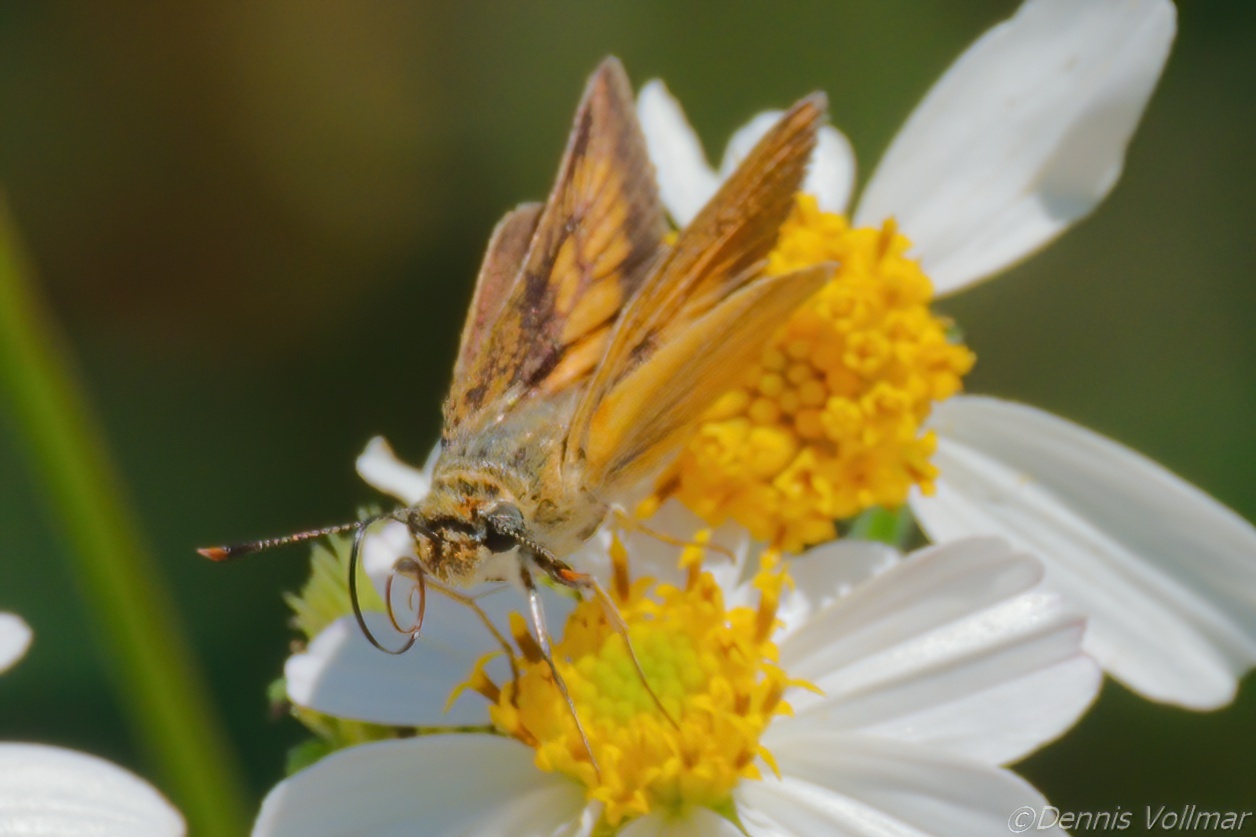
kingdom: Animalia
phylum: Arthropoda
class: Insecta
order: Lepidoptera
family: Hesperiidae
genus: Atrytone
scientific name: Atrytone delaware
